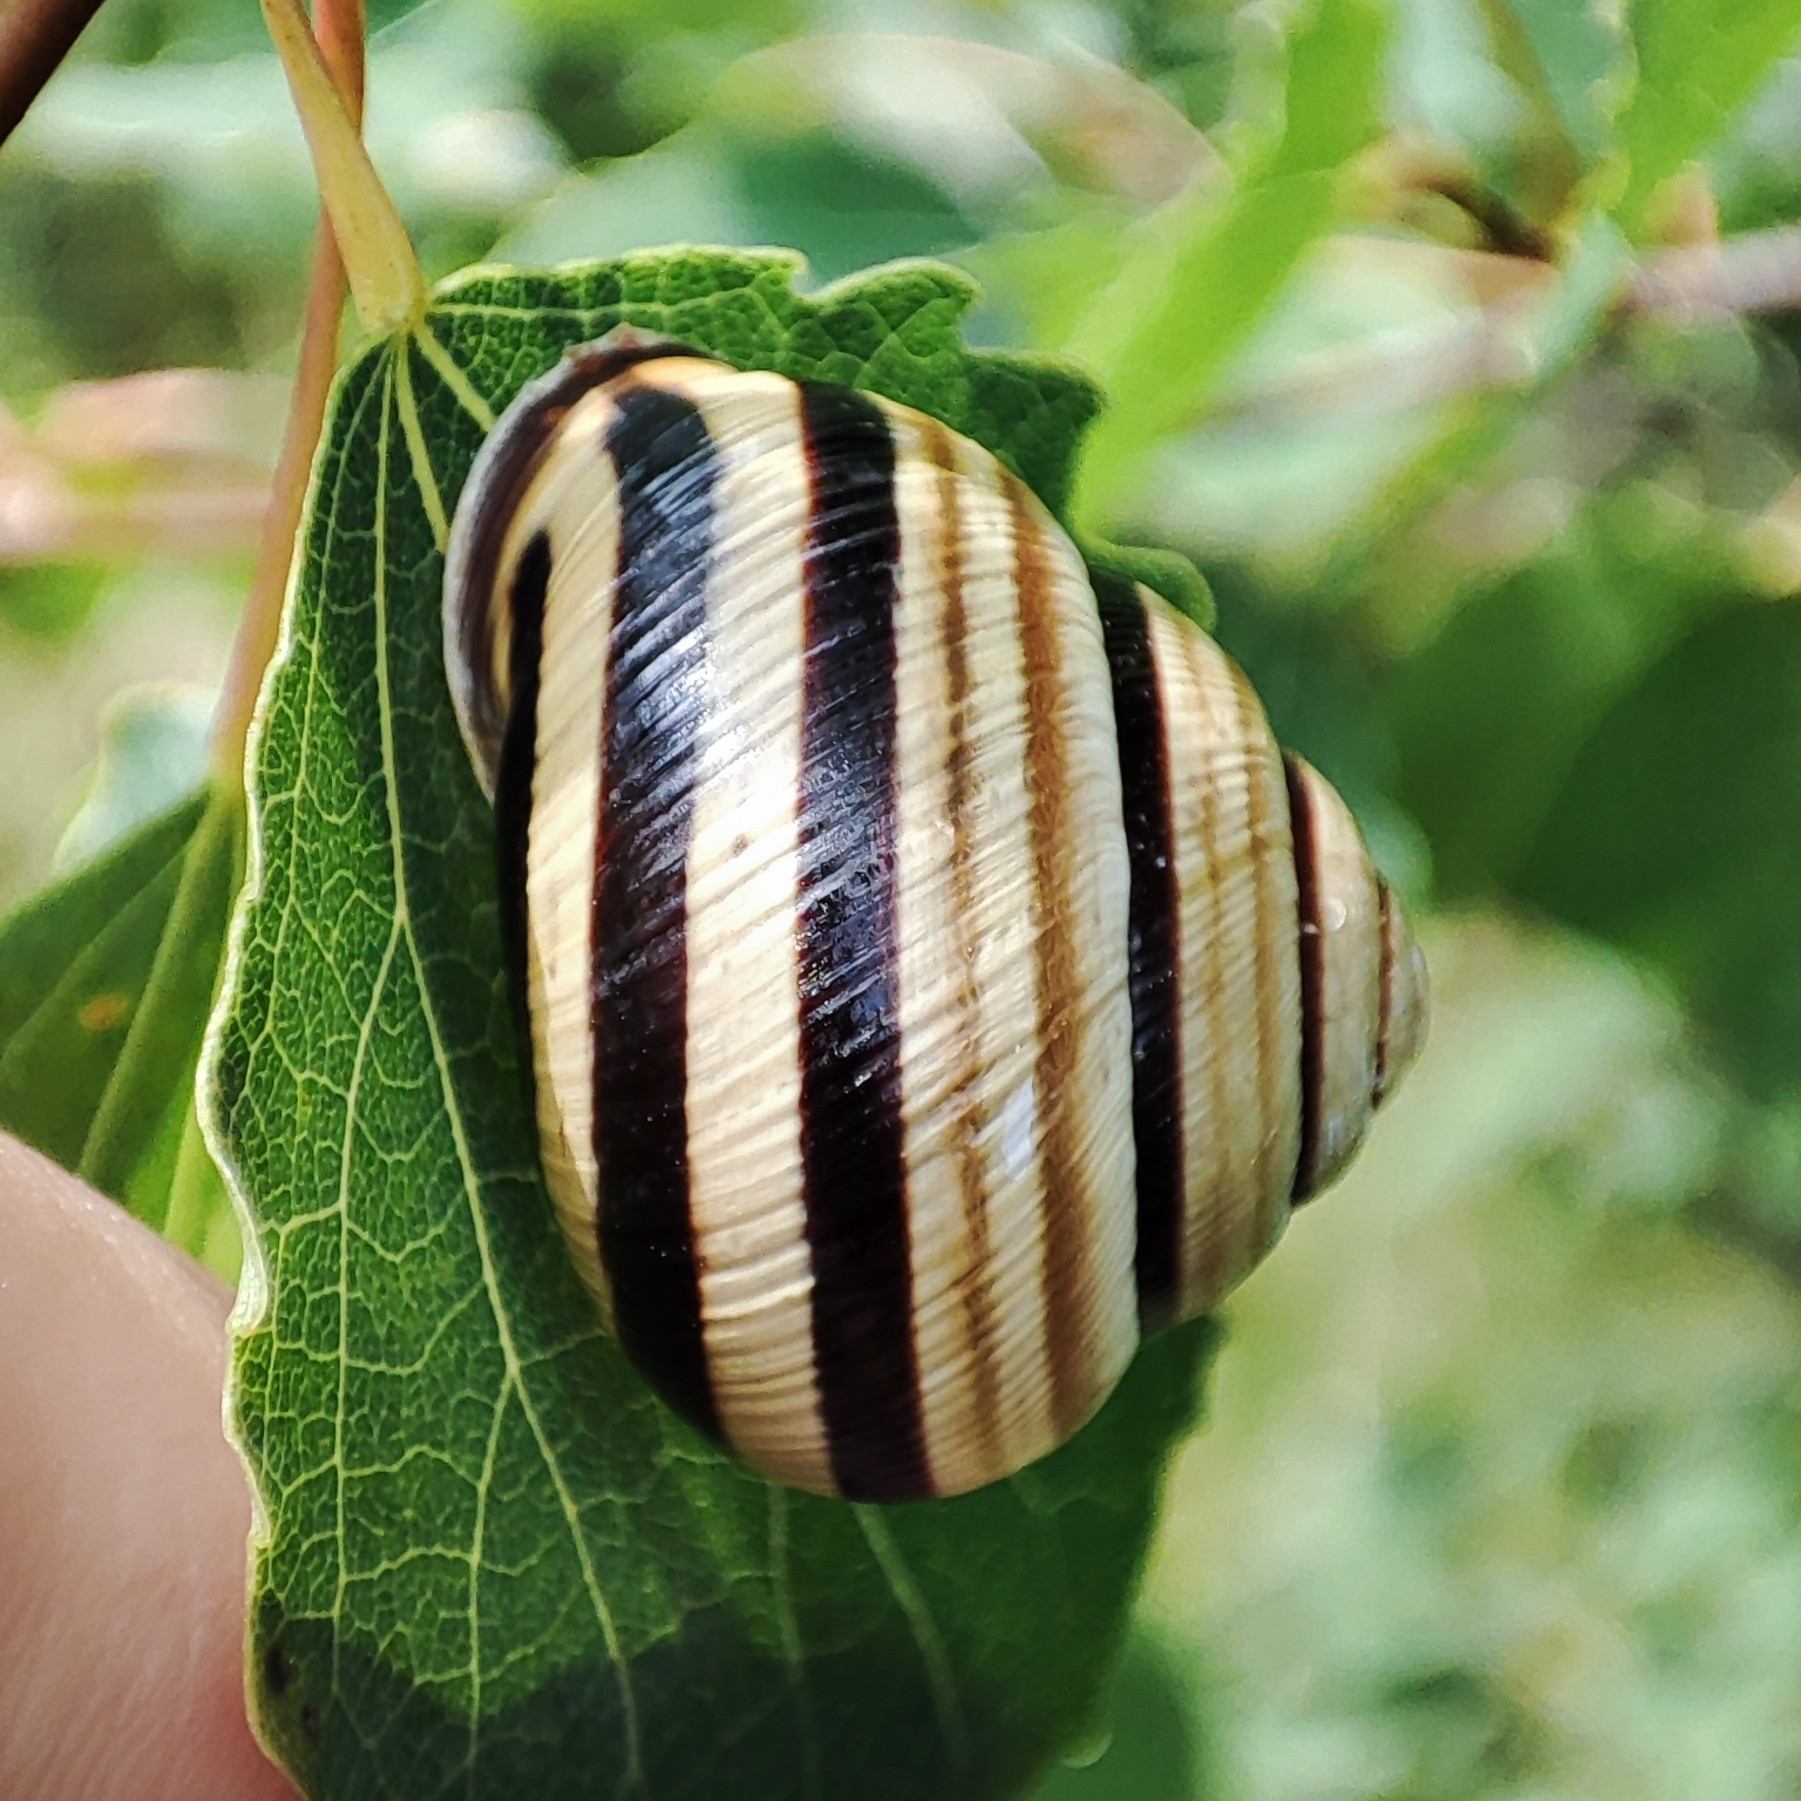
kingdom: Animalia
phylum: Mollusca
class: Gastropoda
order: Stylommatophora
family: Helicidae
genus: Caucasotachea
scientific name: Caucasotachea vindobonensis
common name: European helicid land snail
